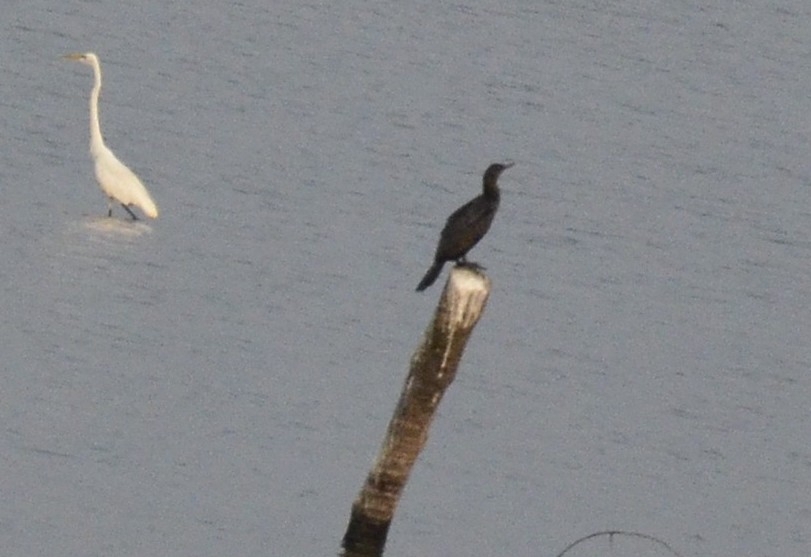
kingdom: Animalia
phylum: Chordata
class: Aves
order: Suliformes
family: Phalacrocoracidae
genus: Microcarbo
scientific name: Microcarbo niger
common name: Little cormorant
